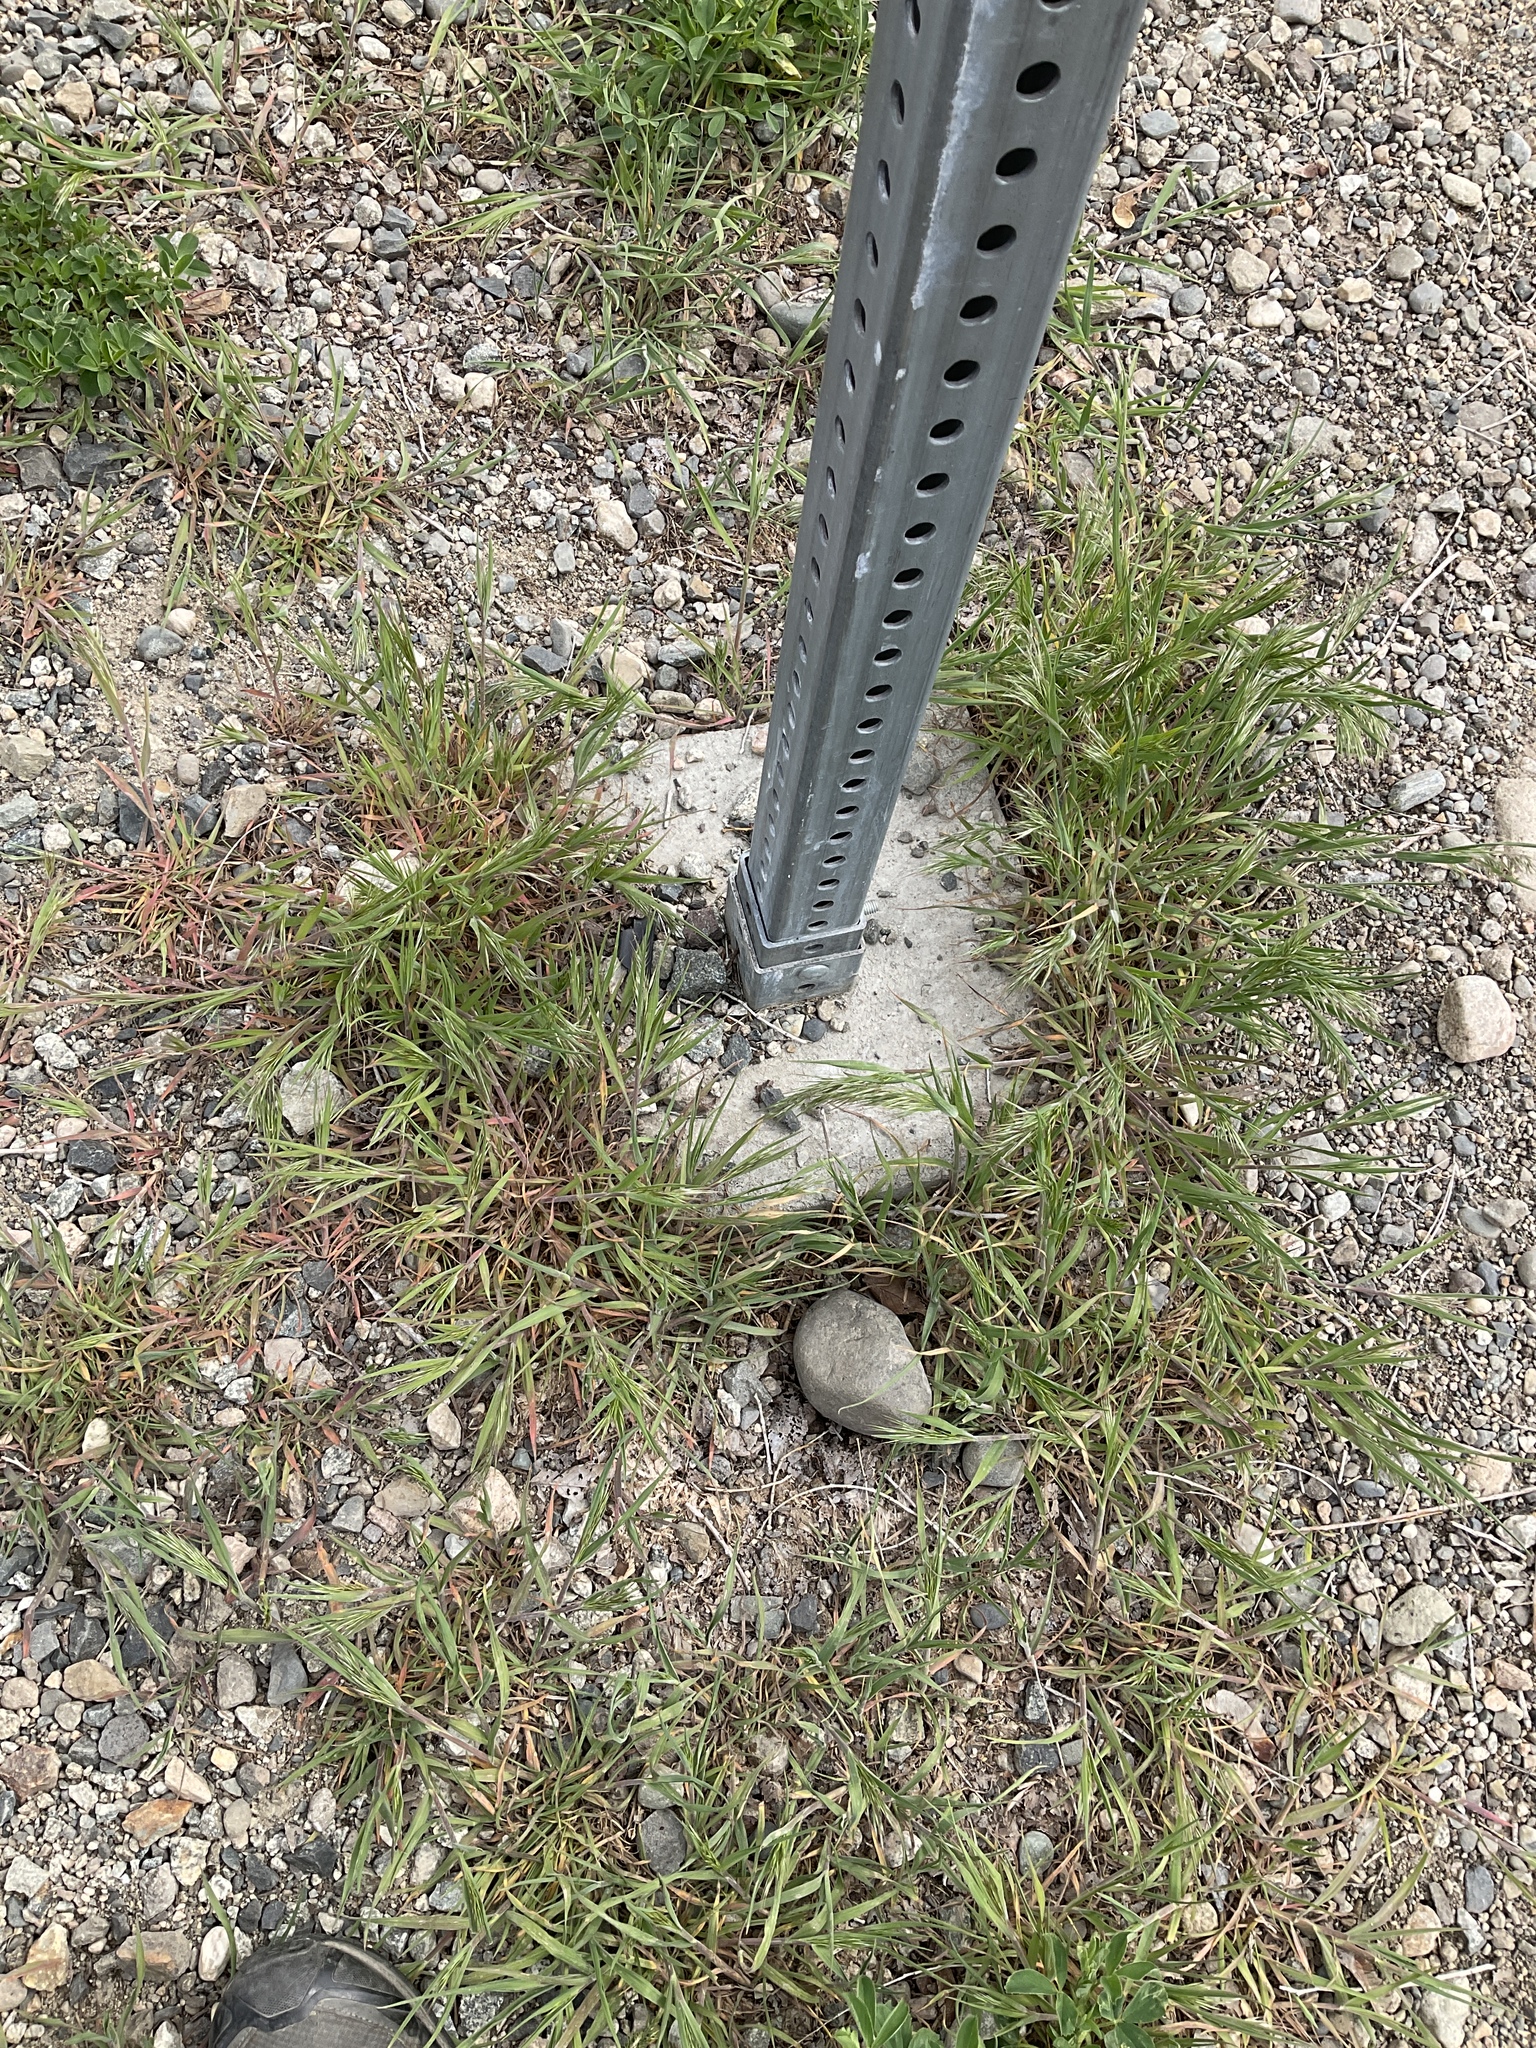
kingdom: Plantae
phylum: Tracheophyta
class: Liliopsida
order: Poales
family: Poaceae
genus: Bromus
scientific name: Bromus tectorum
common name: Cheatgrass
